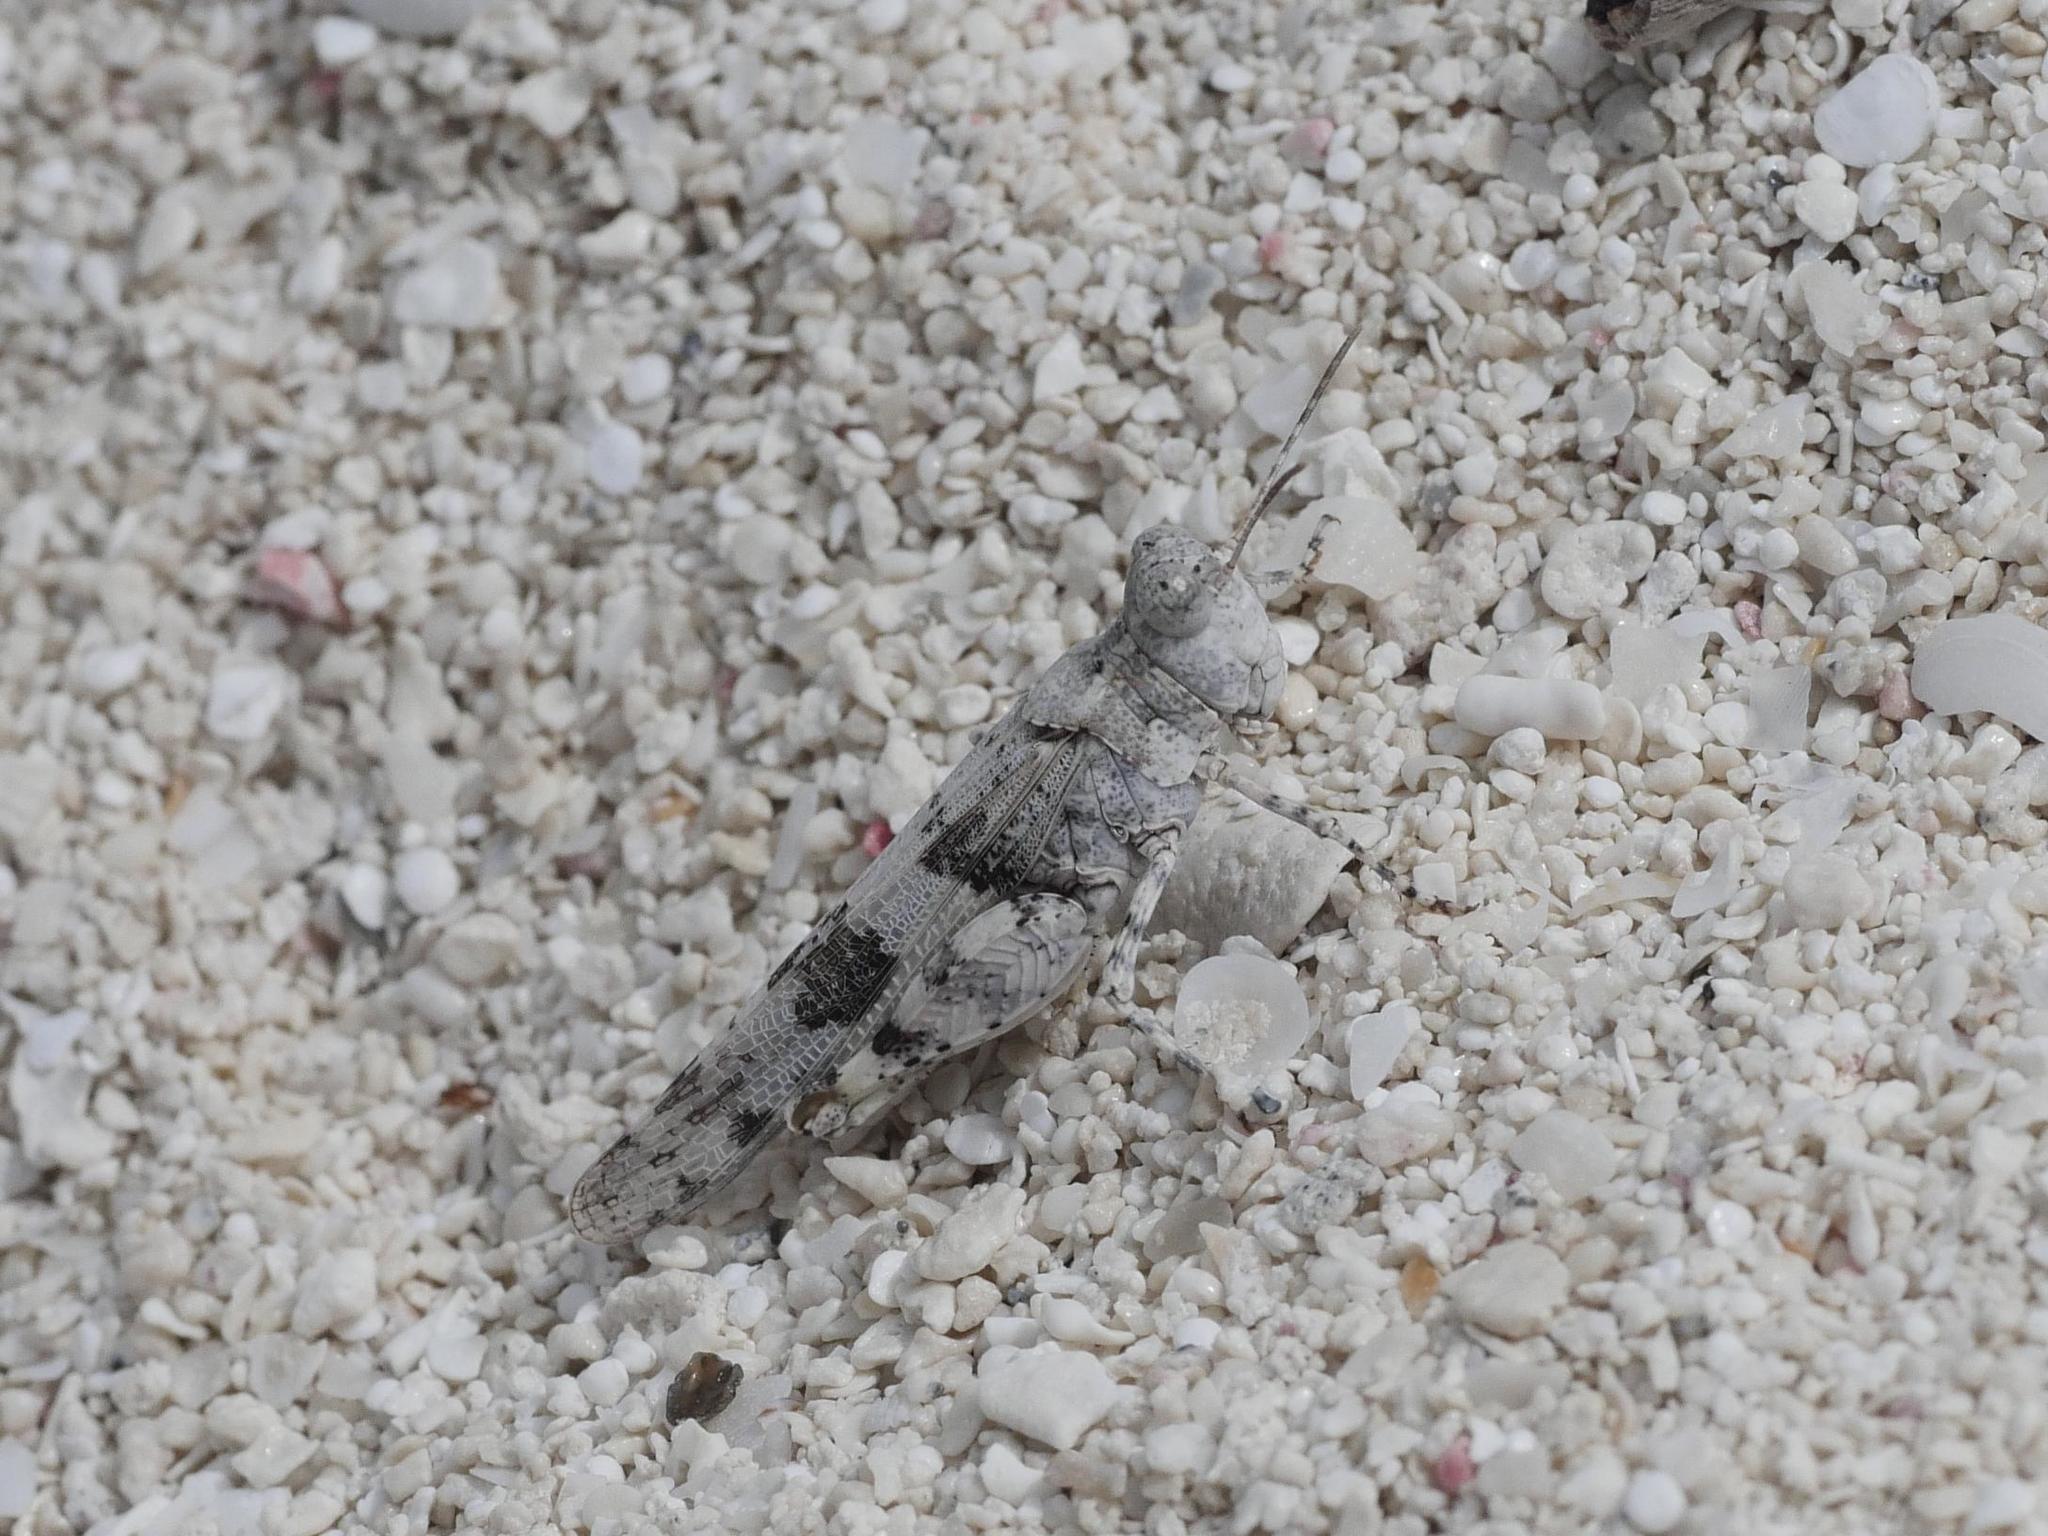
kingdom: Animalia
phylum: Arthropoda
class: Insecta
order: Orthoptera
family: Acrididae
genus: Sphingonotus
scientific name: Sphingonotus haitensis
